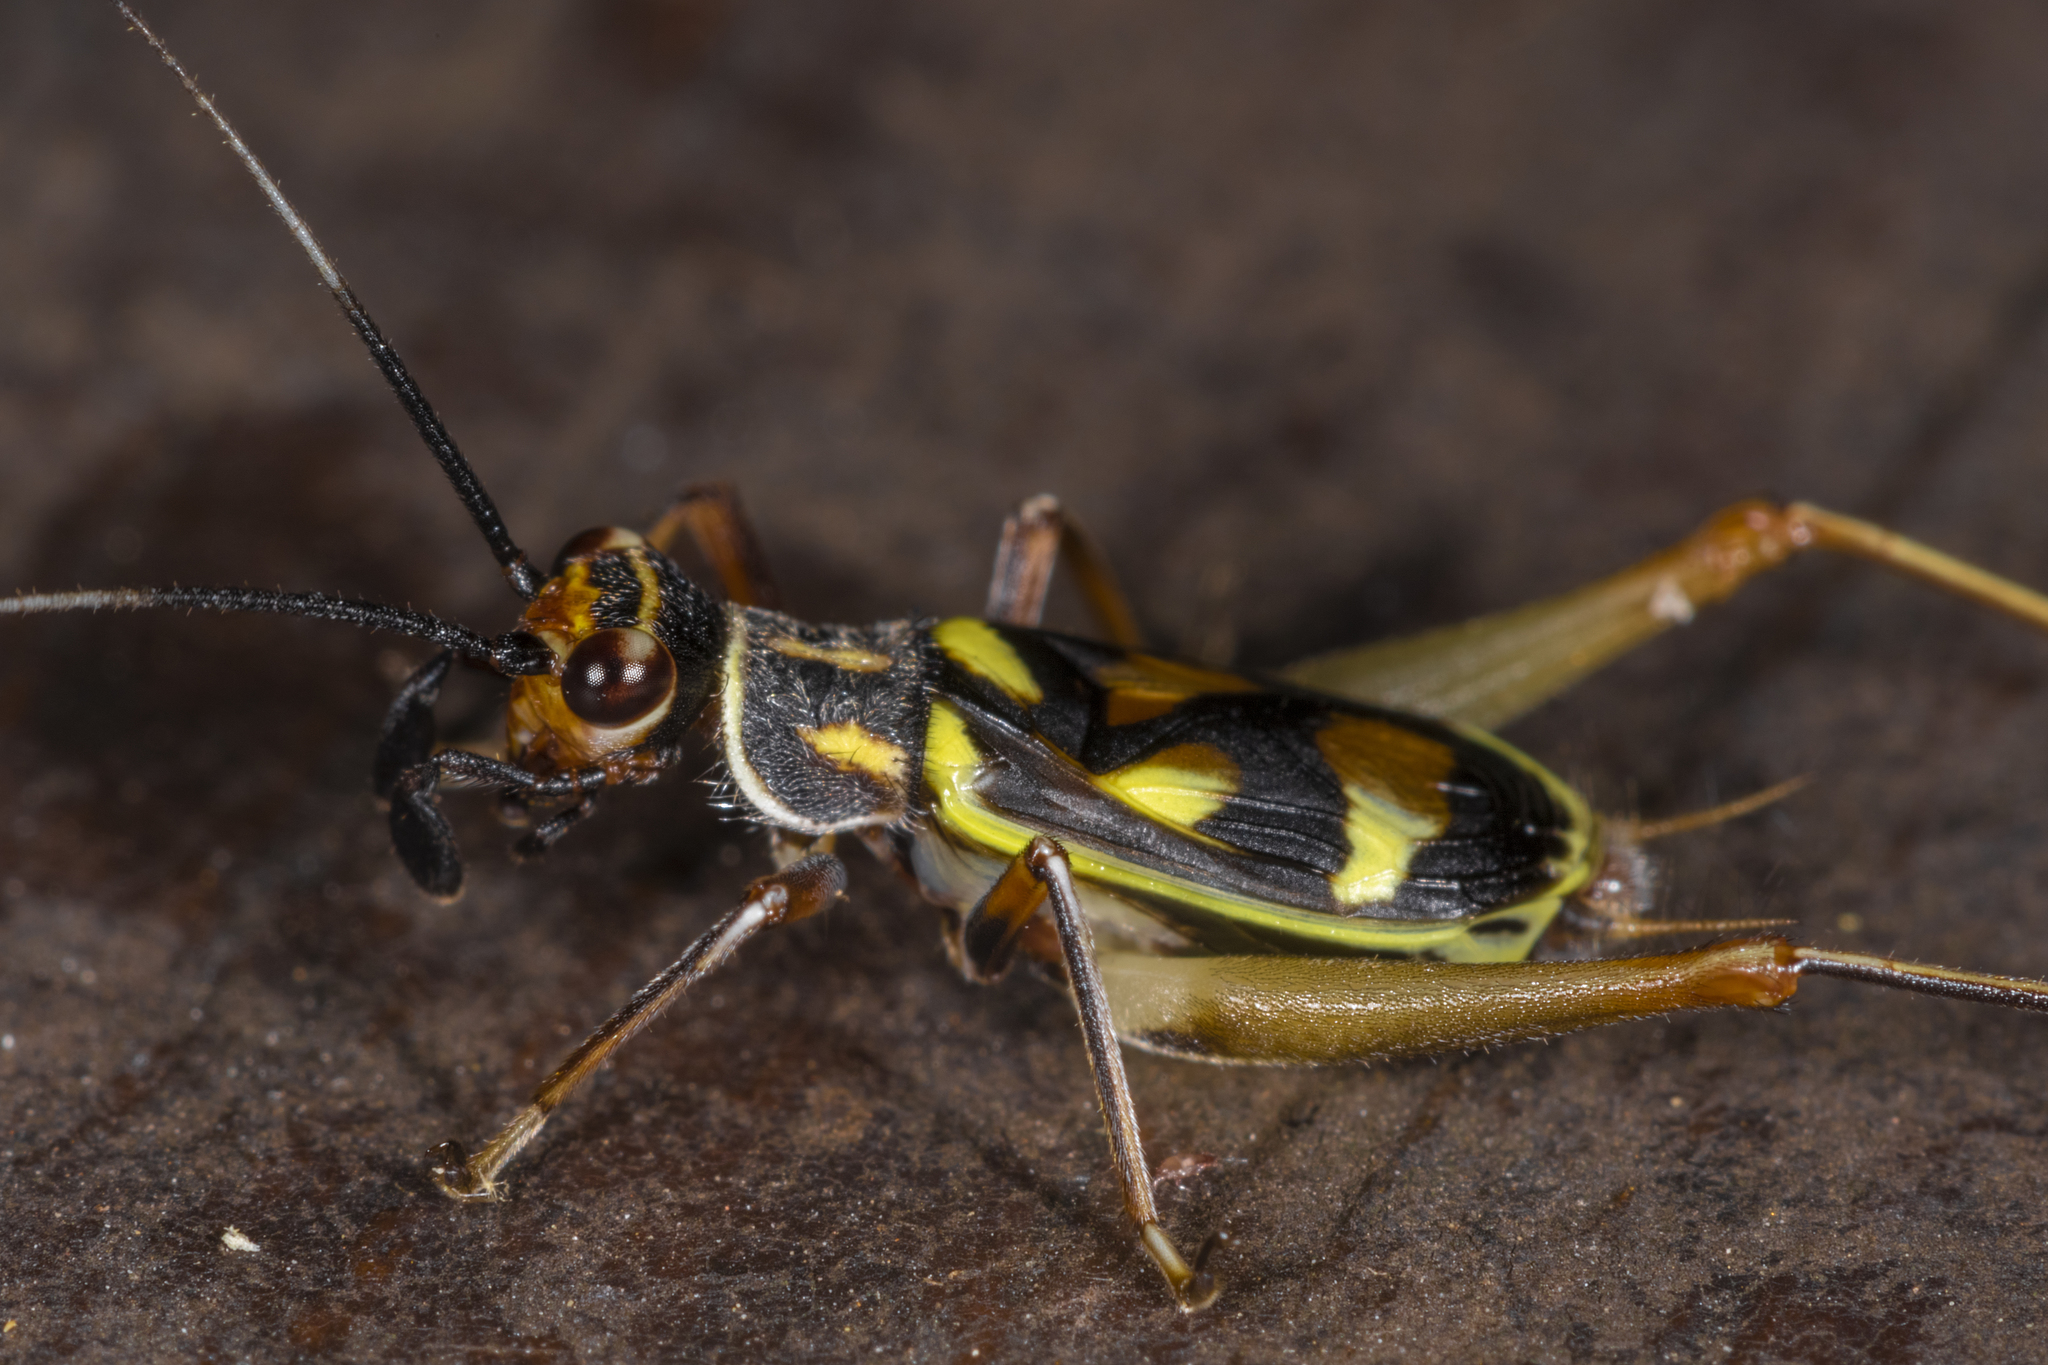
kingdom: Animalia
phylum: Arthropoda
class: Insecta
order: Orthoptera
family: Trigonidiidae
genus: Phylloscyrtus
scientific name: Phylloscyrtus amoenus
